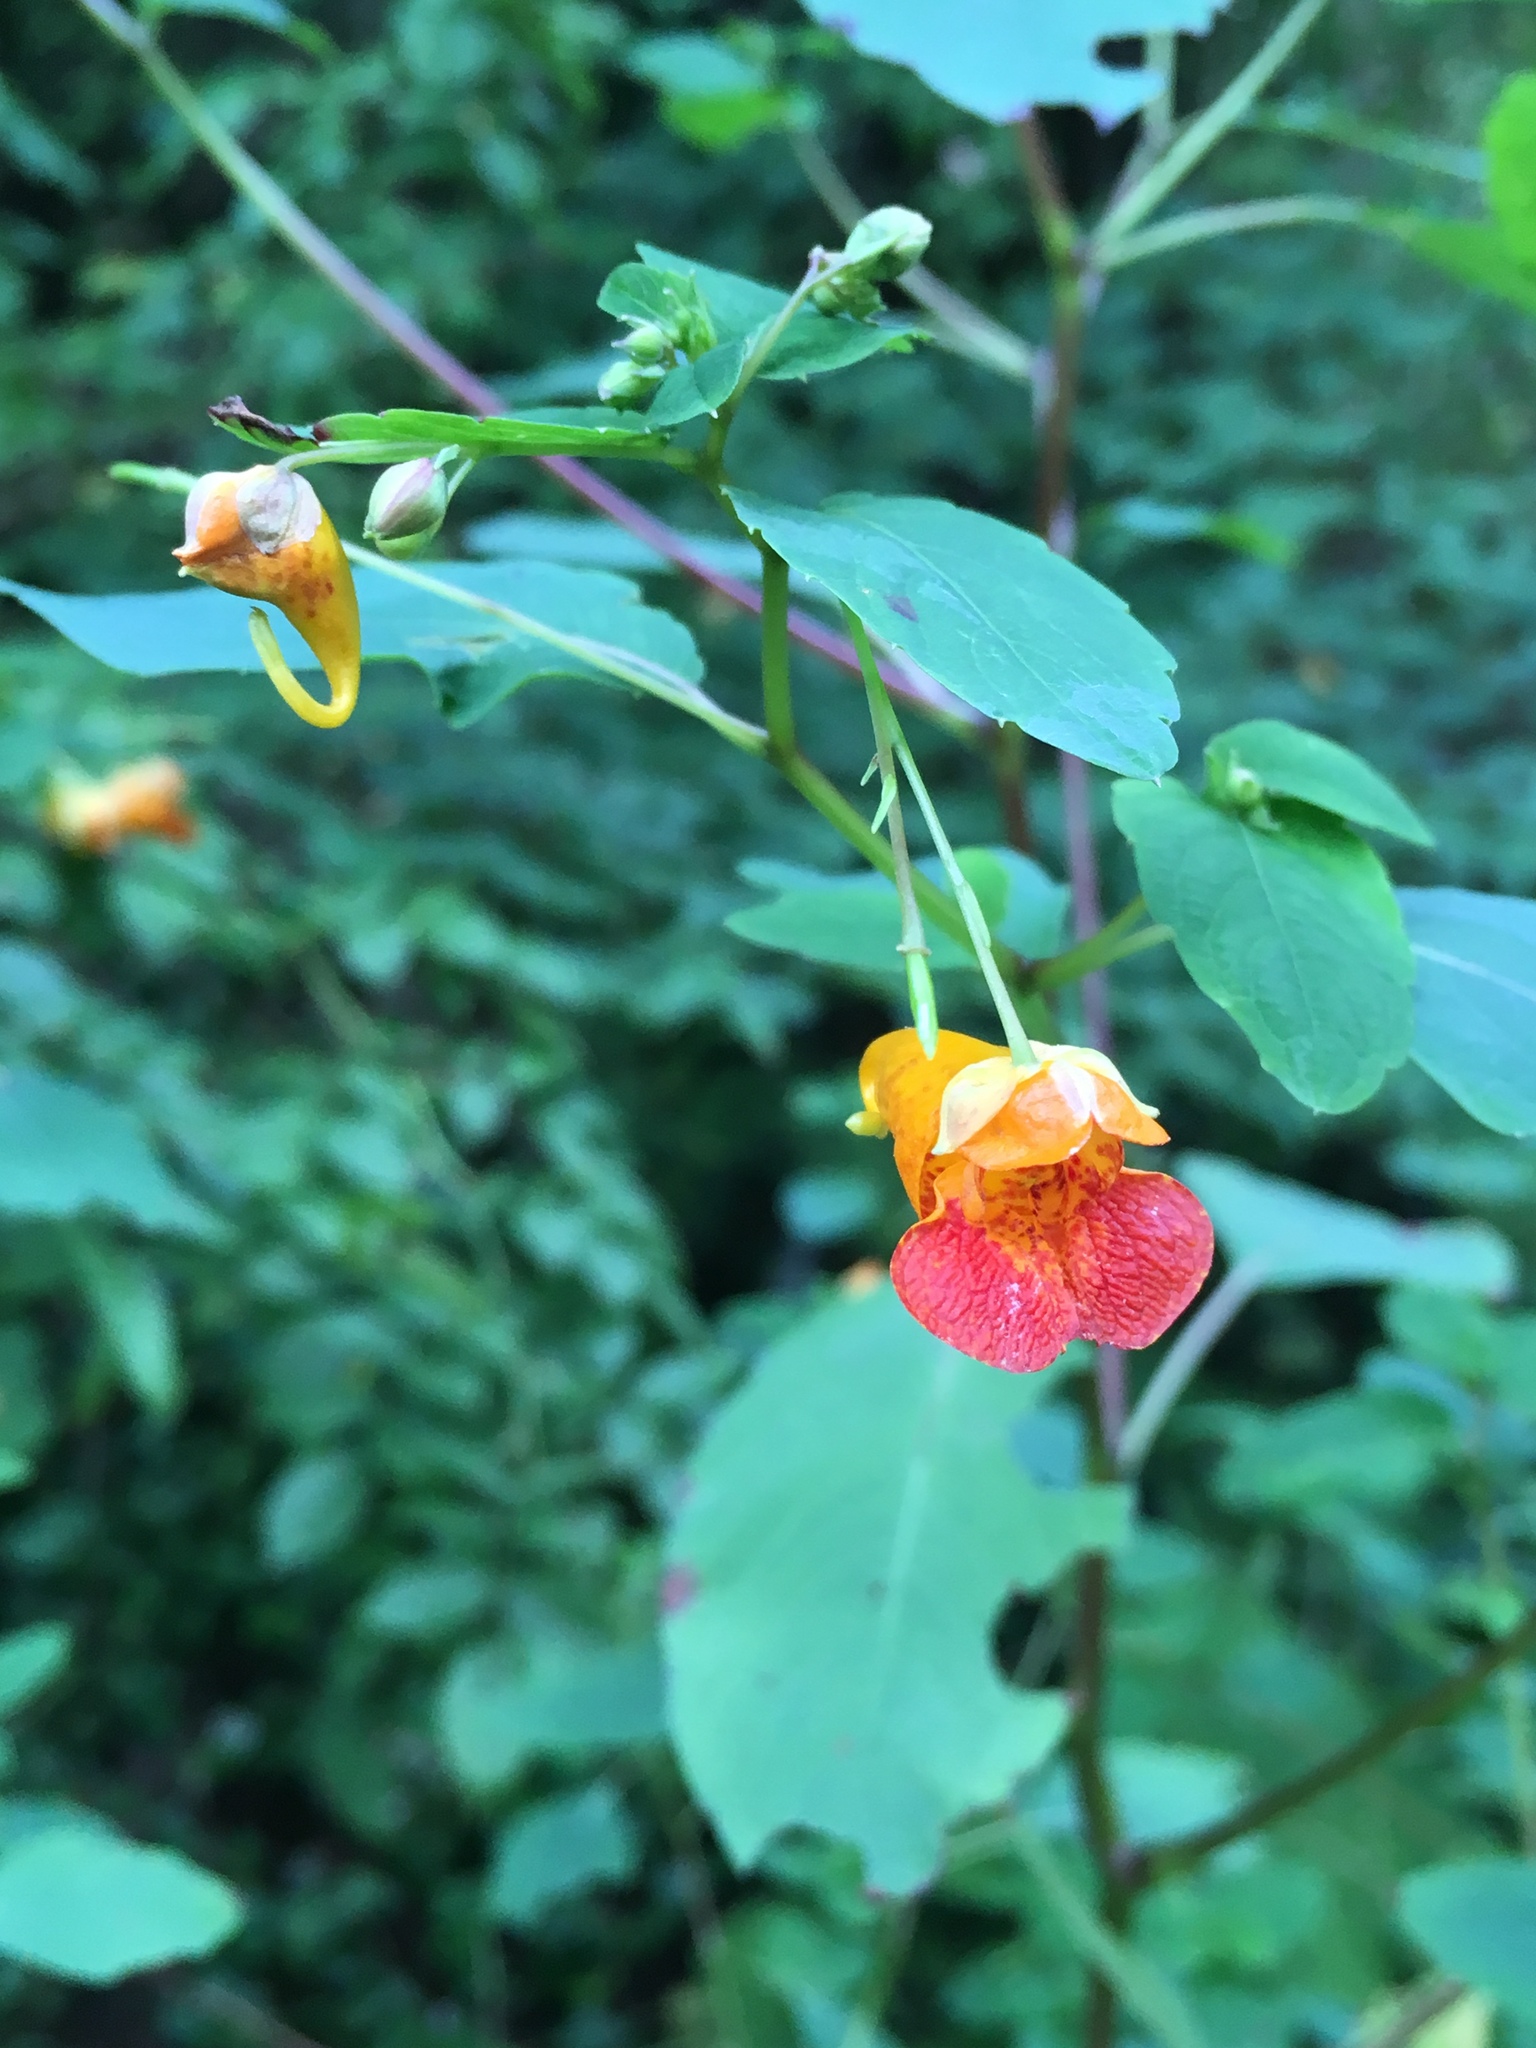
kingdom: Plantae
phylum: Tracheophyta
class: Magnoliopsida
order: Ericales
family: Balsaminaceae
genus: Impatiens
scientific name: Impatiens capensis
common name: Orange balsam
